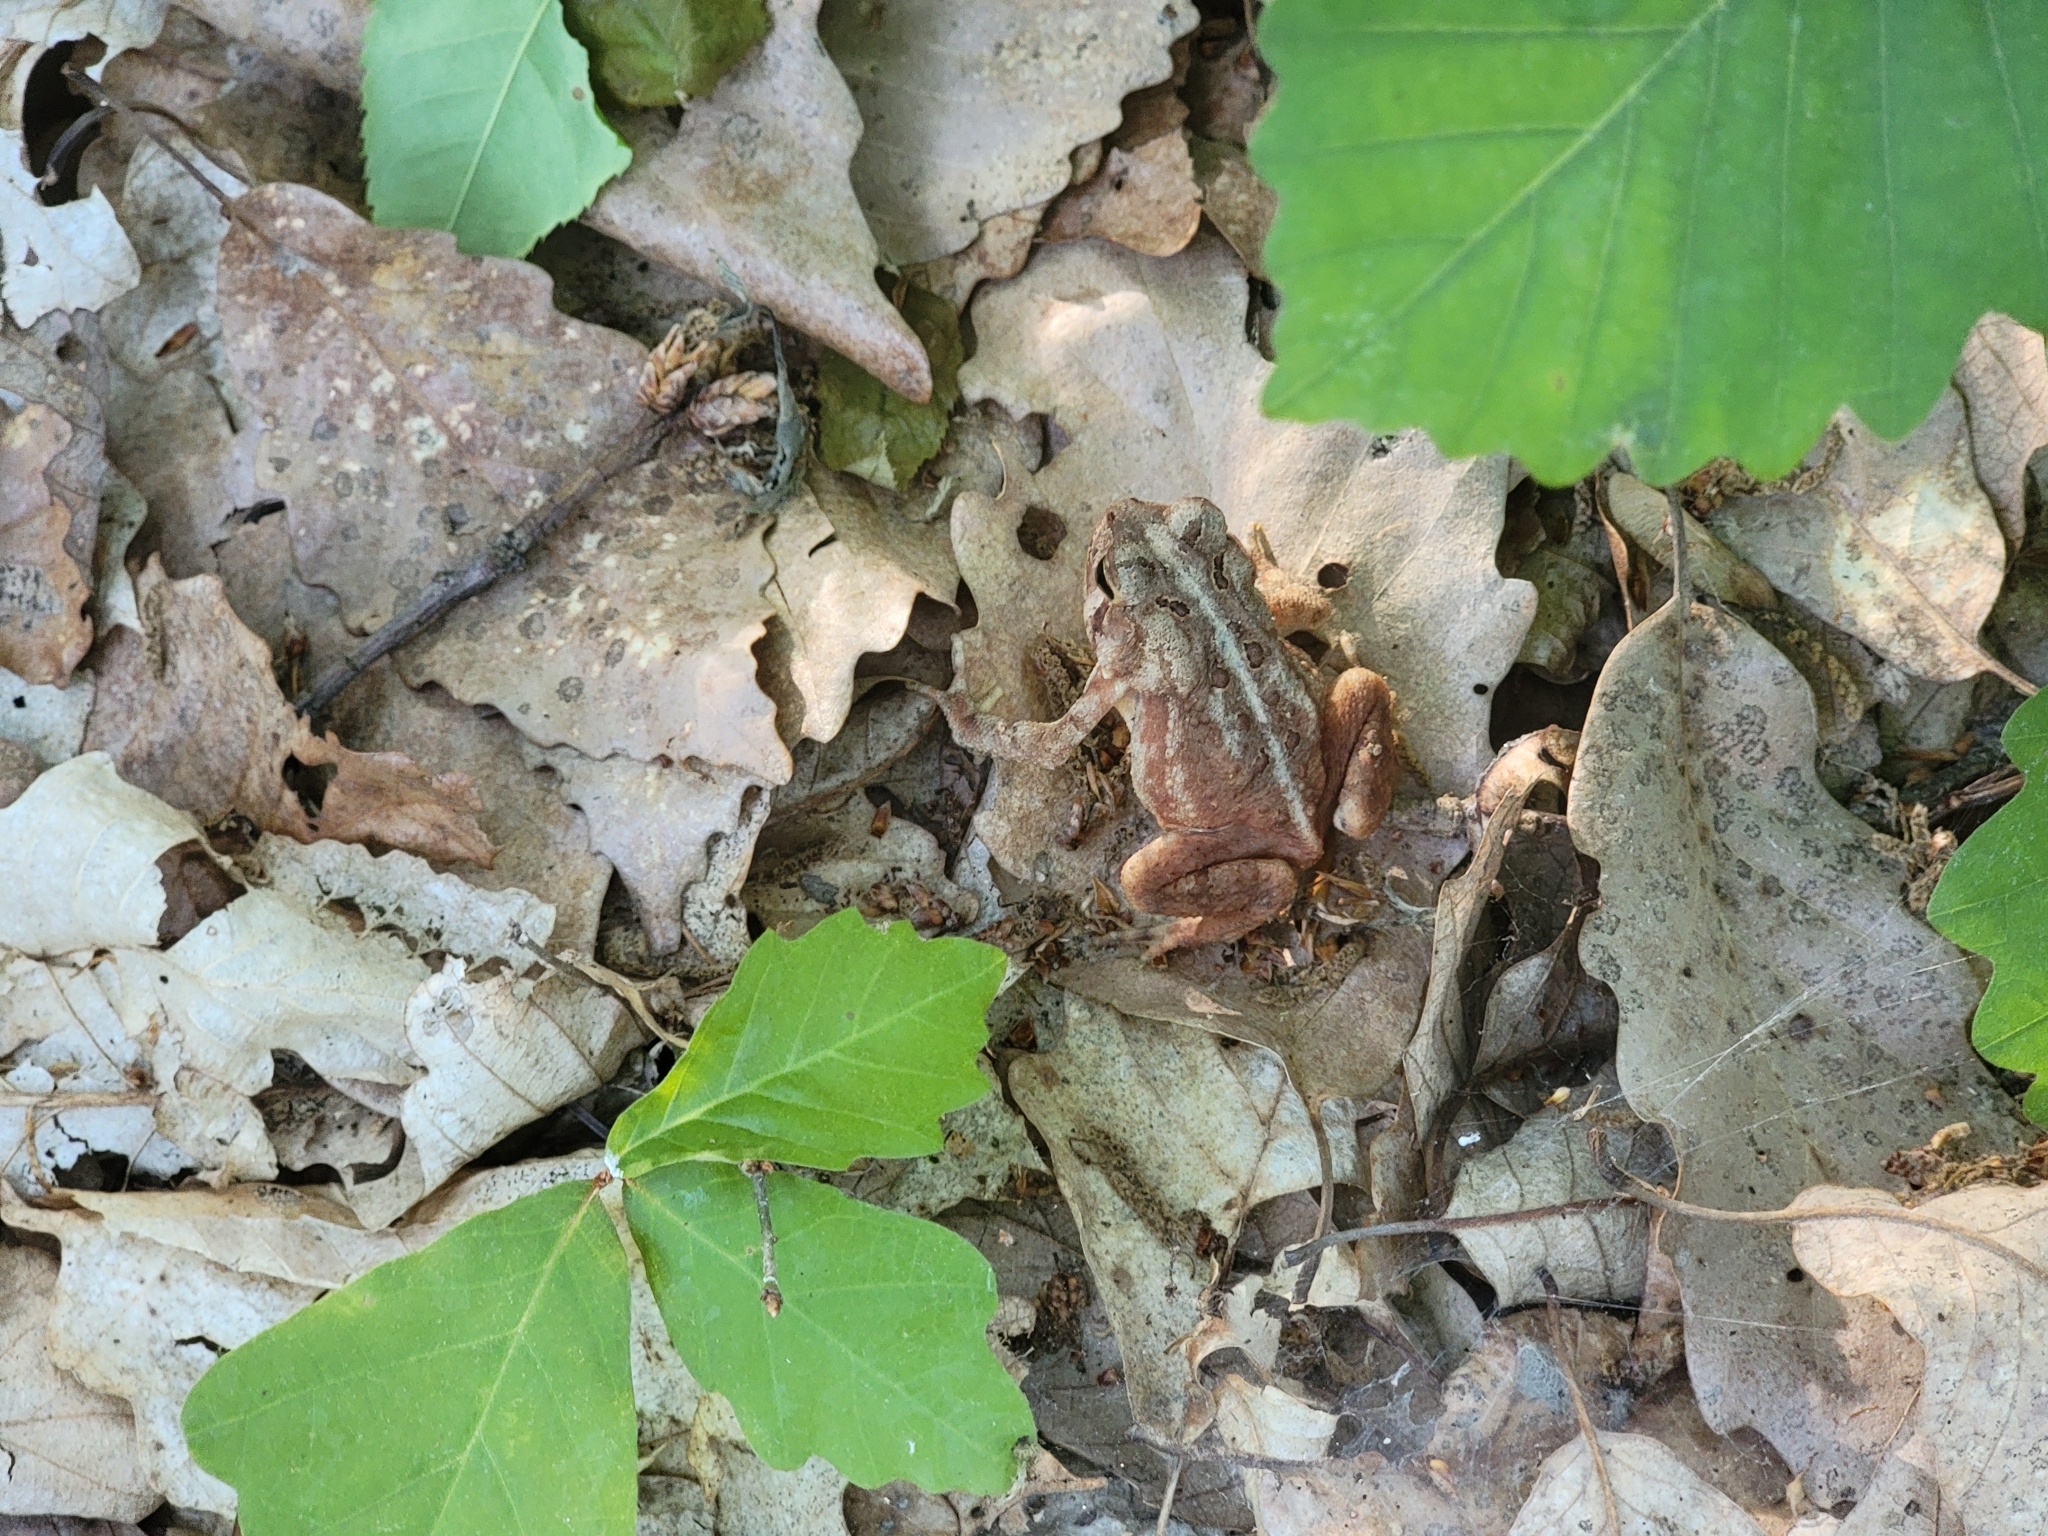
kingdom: Animalia
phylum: Chordata
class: Amphibia
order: Anura
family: Bufonidae
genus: Anaxyrus
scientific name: Anaxyrus americanus
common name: American toad
